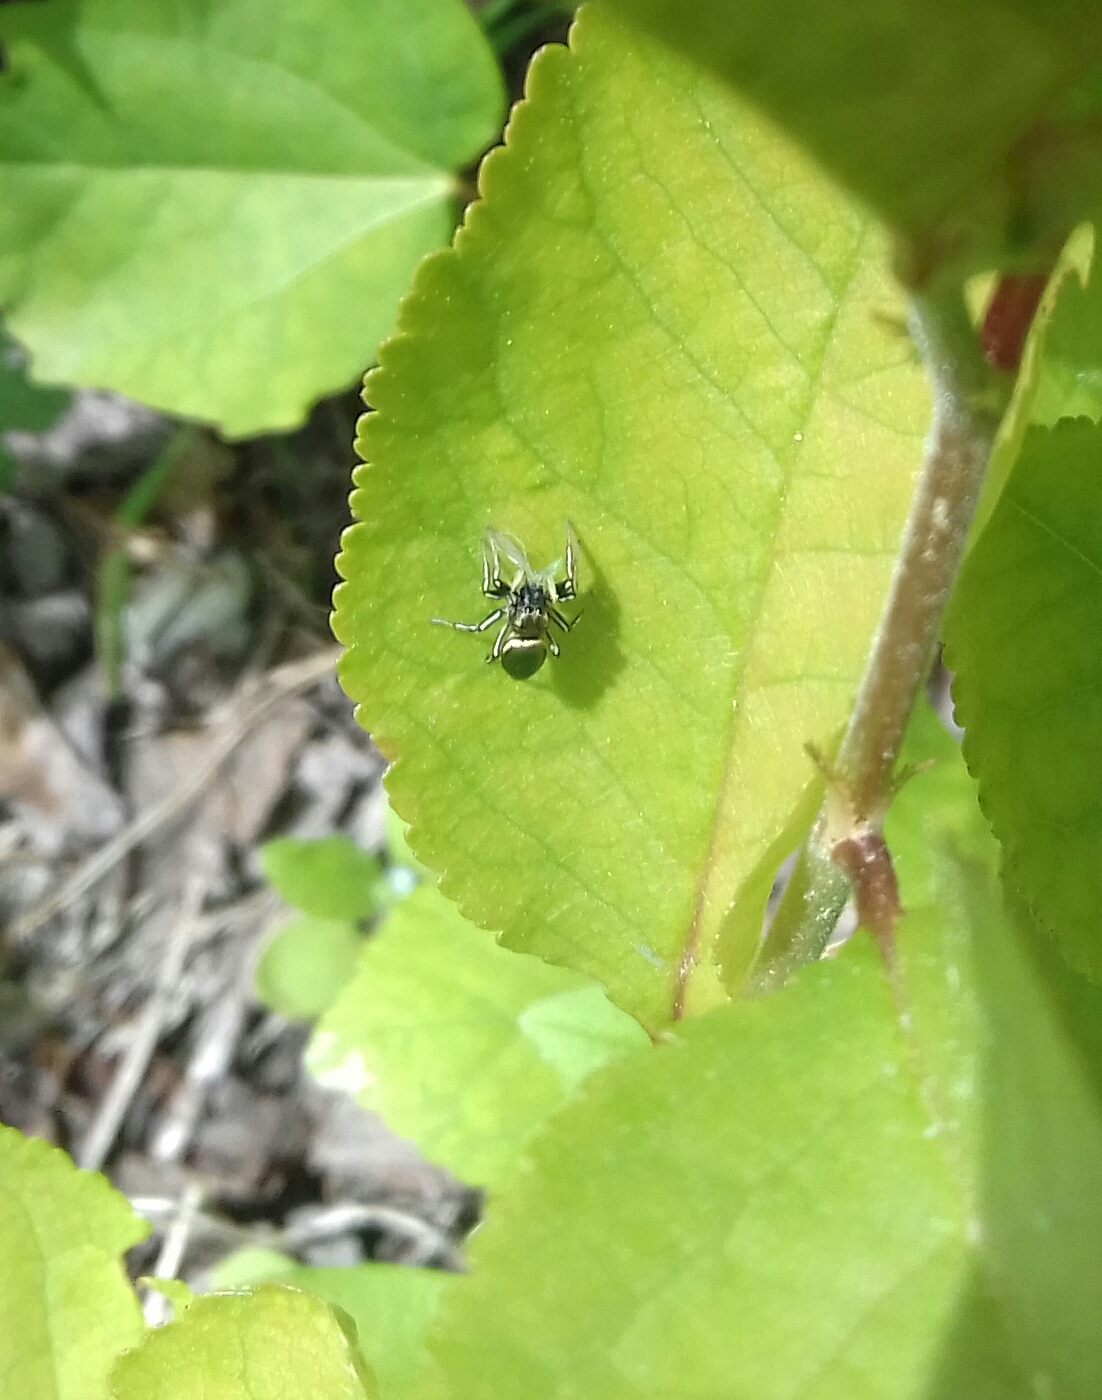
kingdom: Animalia
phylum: Arthropoda
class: Arachnida
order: Araneae
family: Salticidae
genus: Heliophanus
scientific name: Heliophanus auratus
